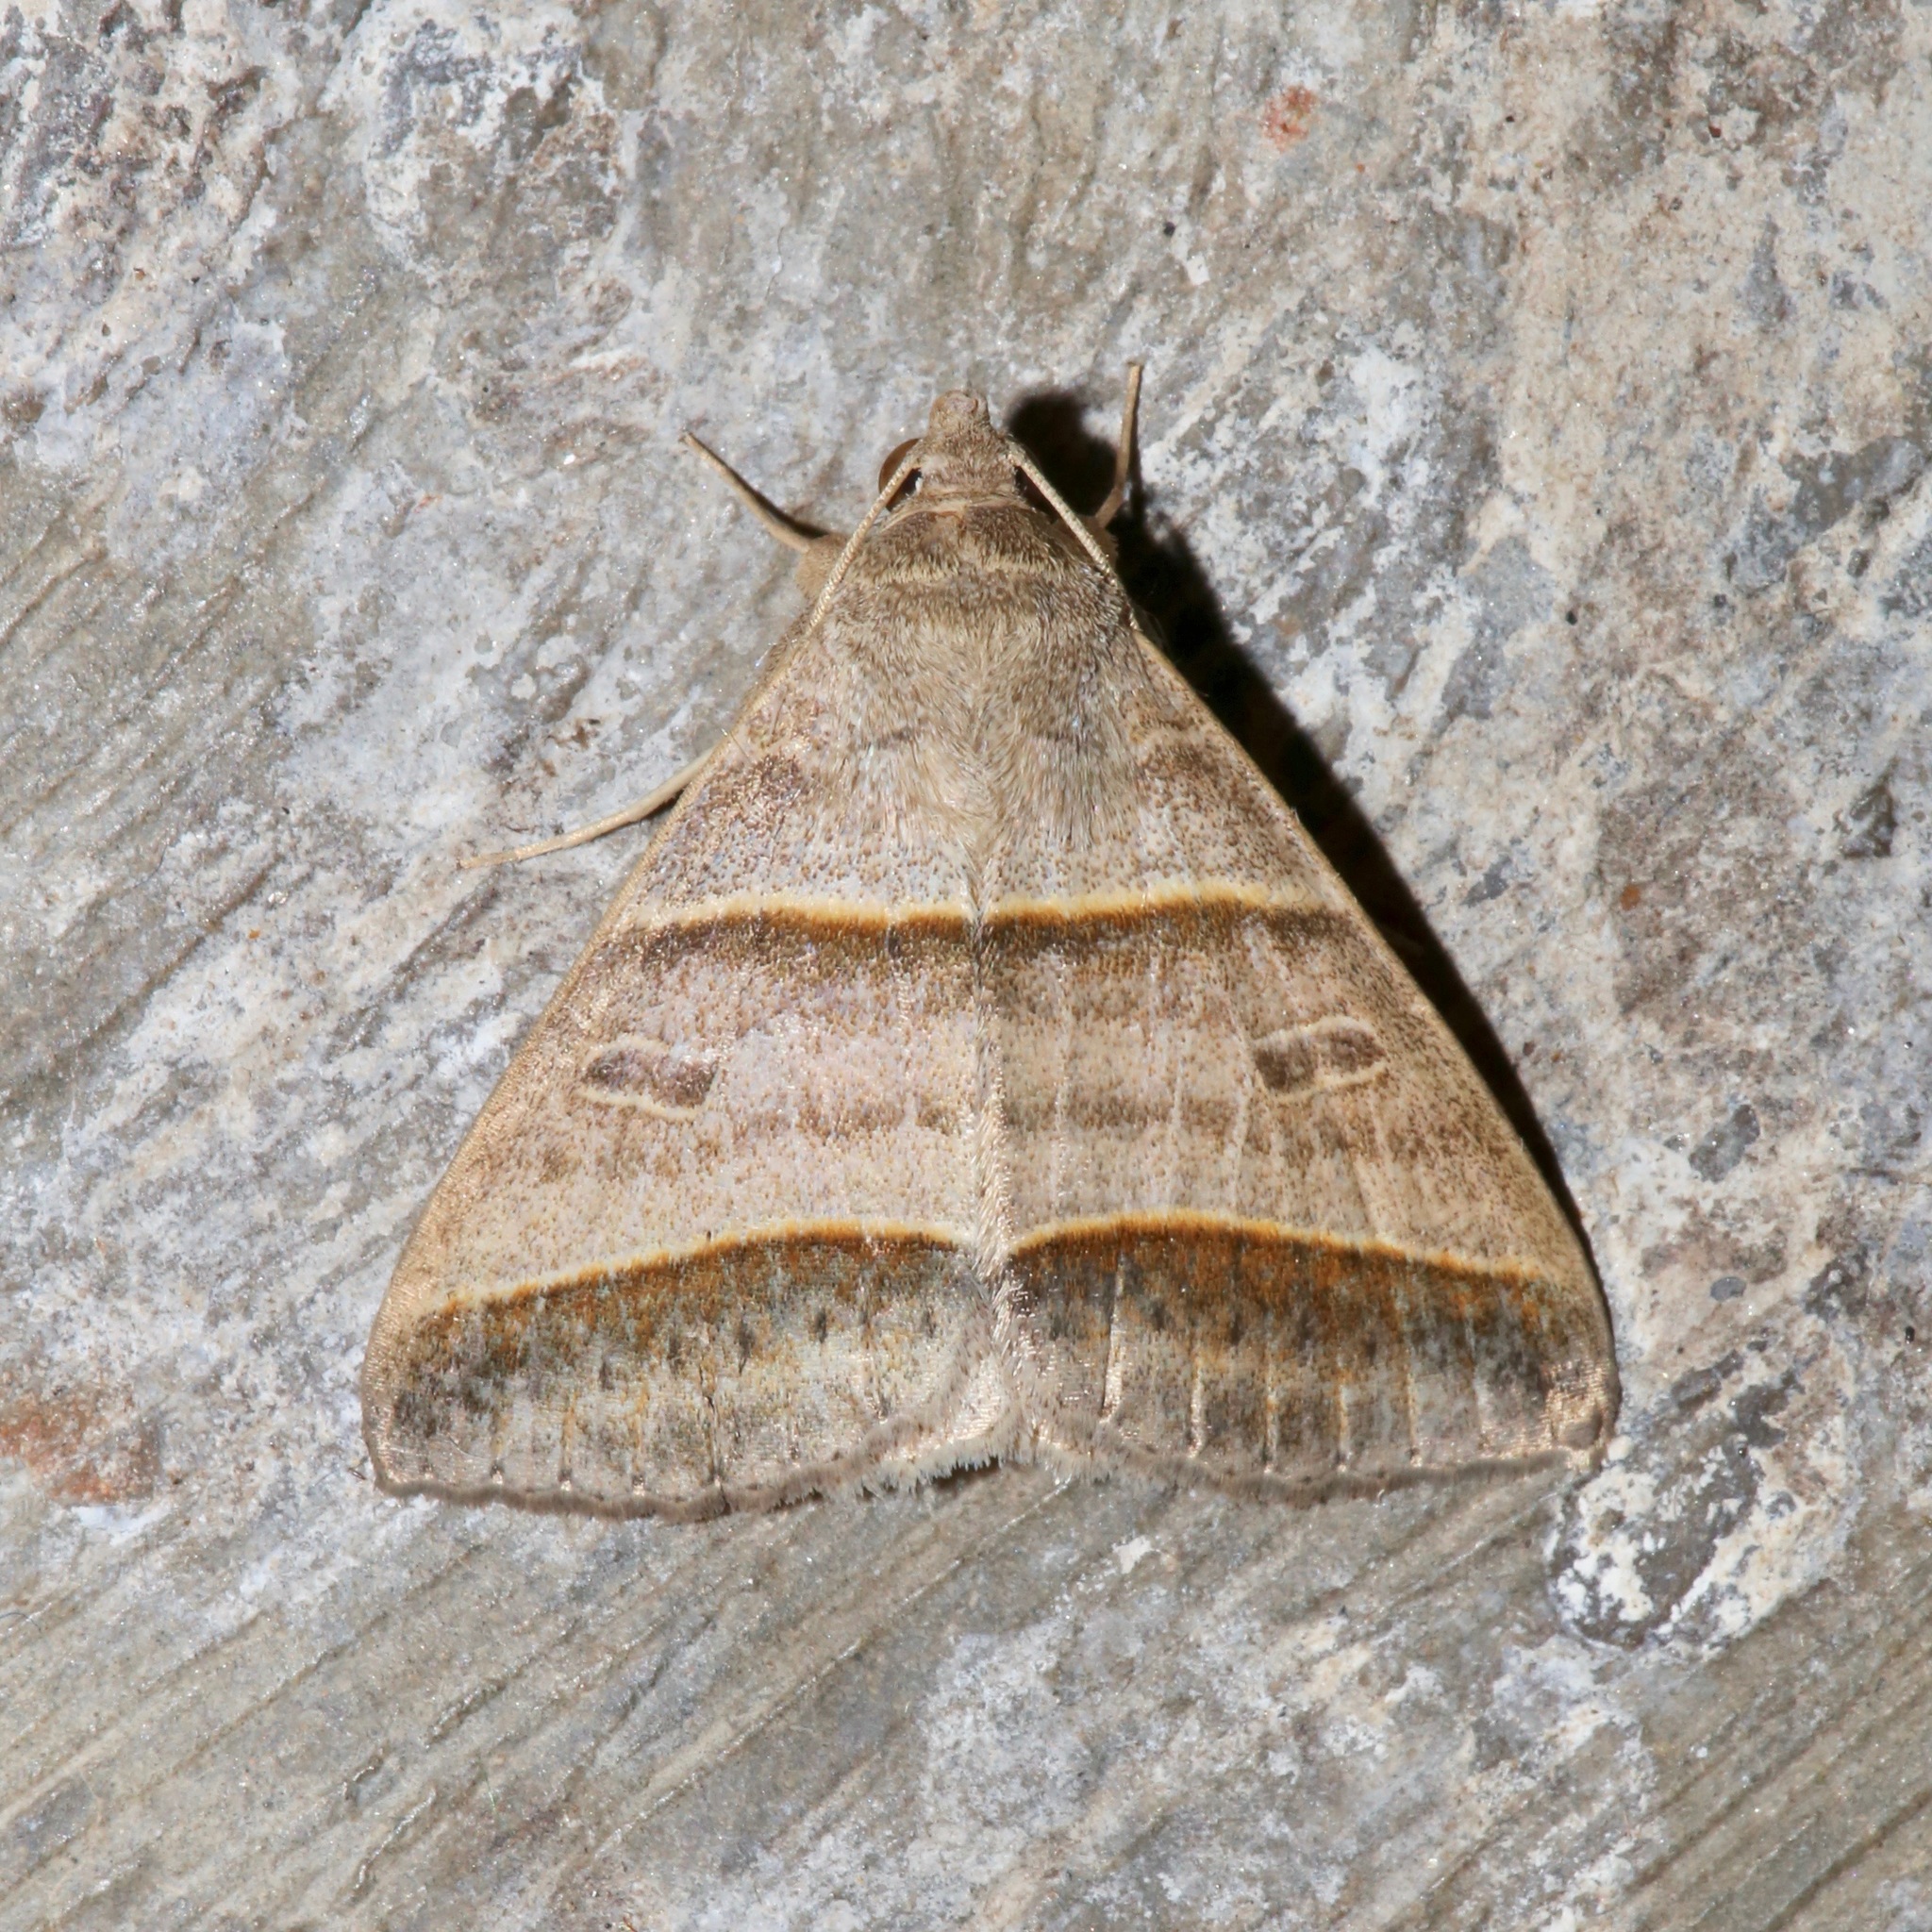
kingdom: Animalia
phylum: Arthropoda
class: Insecta
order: Lepidoptera
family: Erebidae
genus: Ptichodis
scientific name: Ptichodis immunis
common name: Cutworm moth
